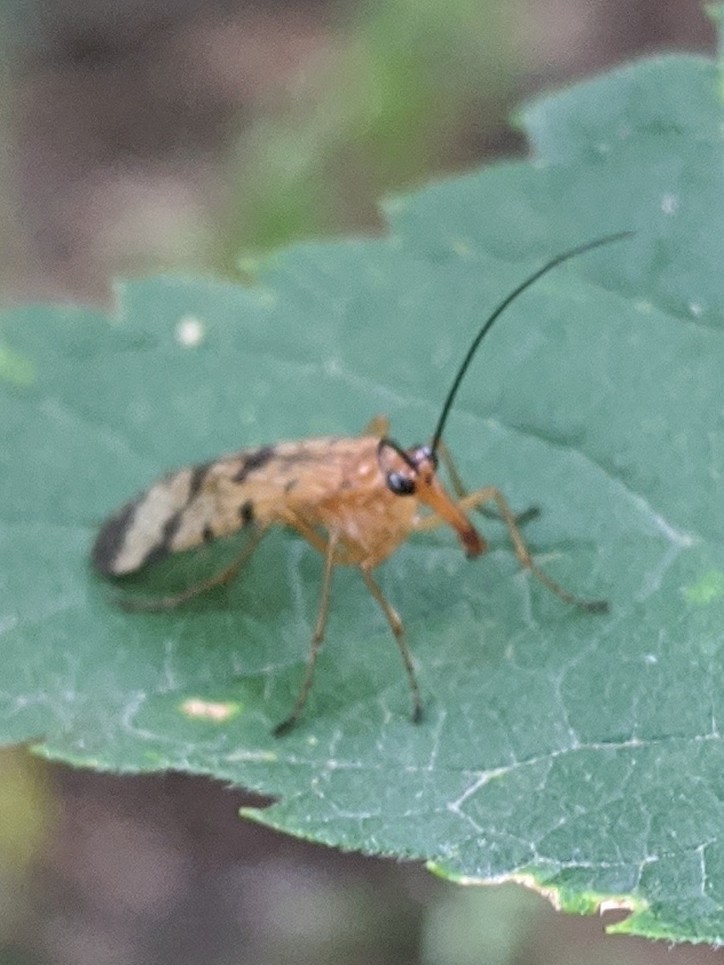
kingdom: Animalia
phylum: Arthropoda
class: Insecta
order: Mecoptera
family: Panorpidae
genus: Panorpa
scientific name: Panorpa debilis
